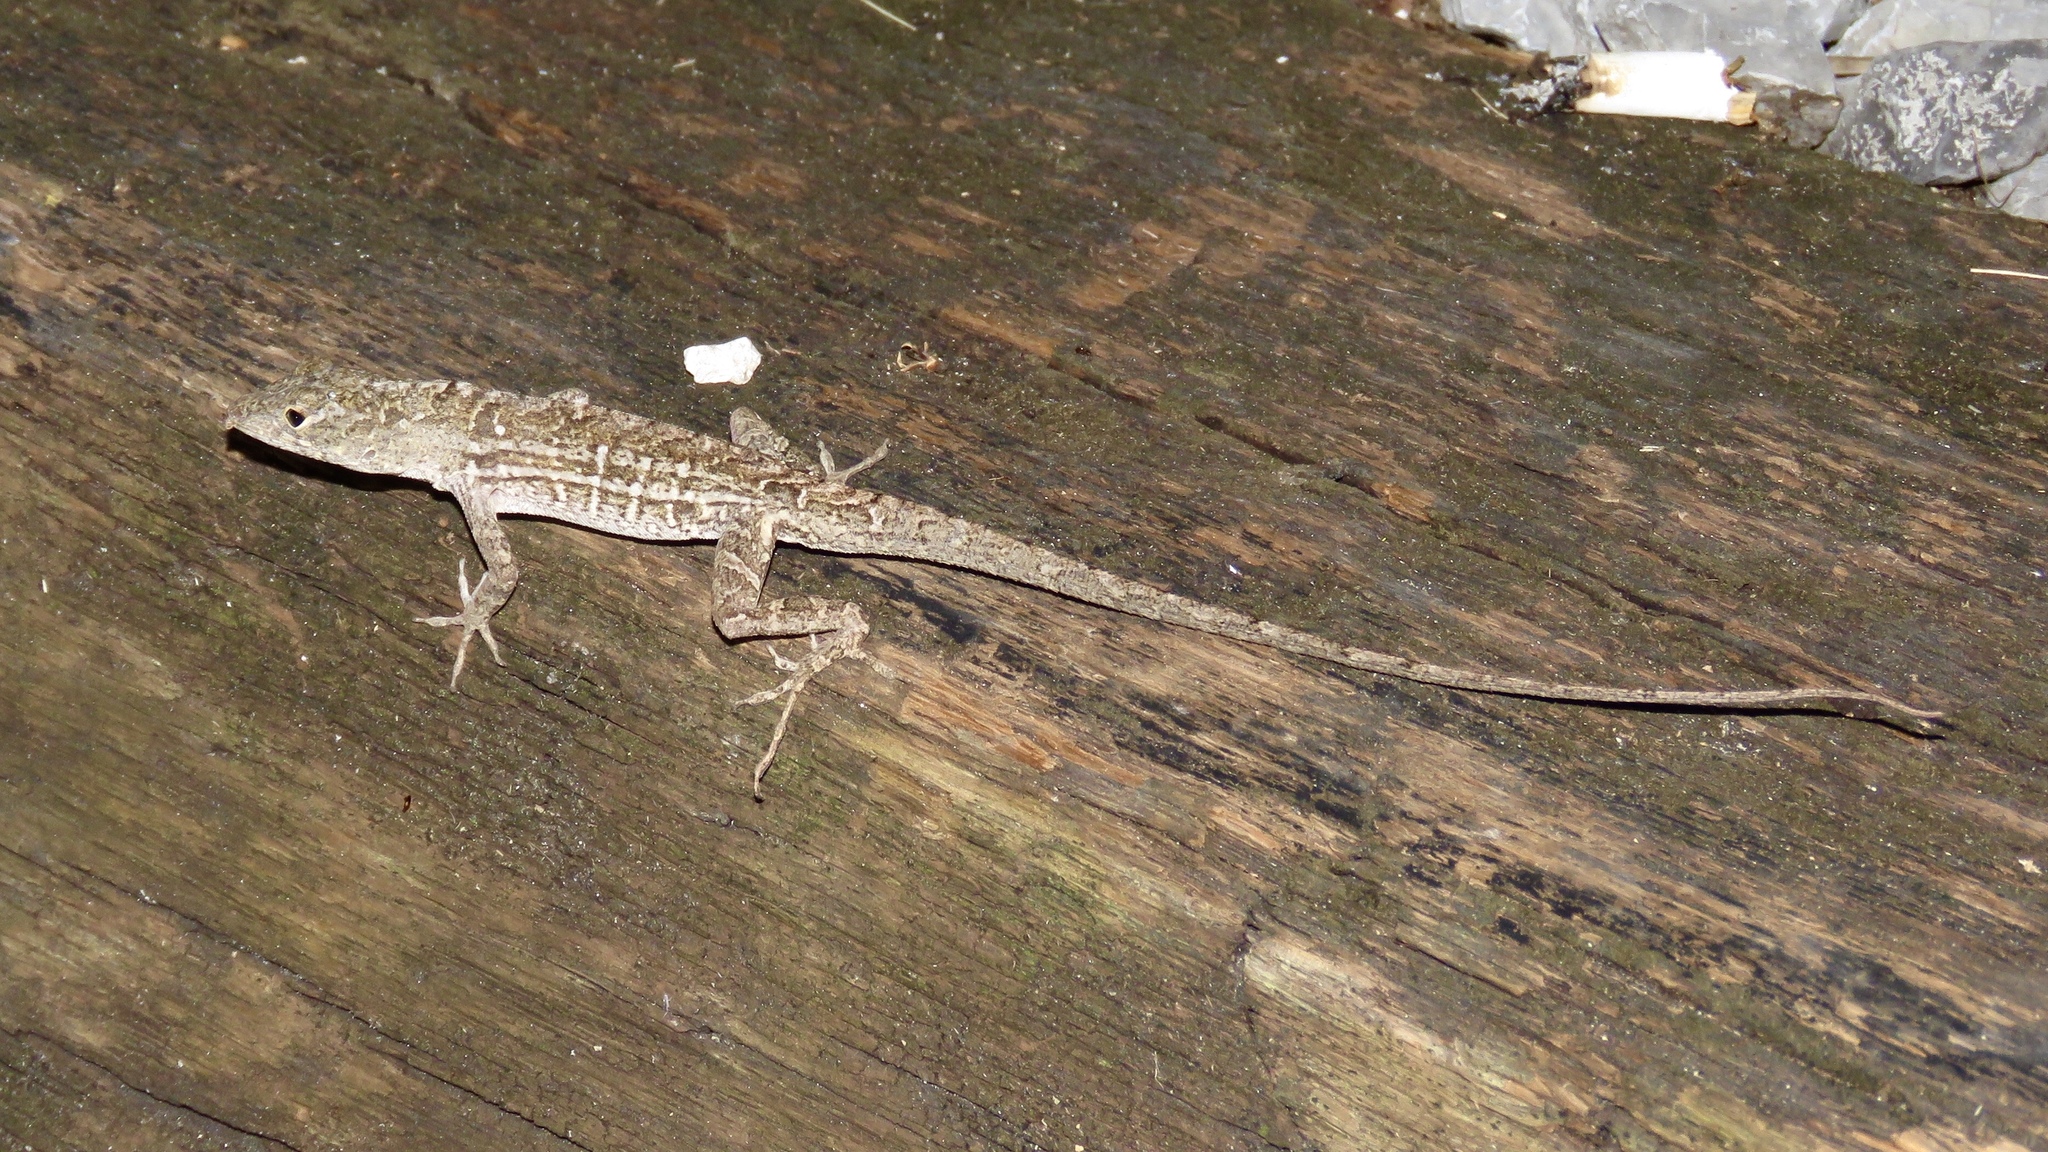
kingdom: Animalia
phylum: Chordata
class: Squamata
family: Dactyloidae
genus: Anolis
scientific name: Anolis sagrei
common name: Brown anole
